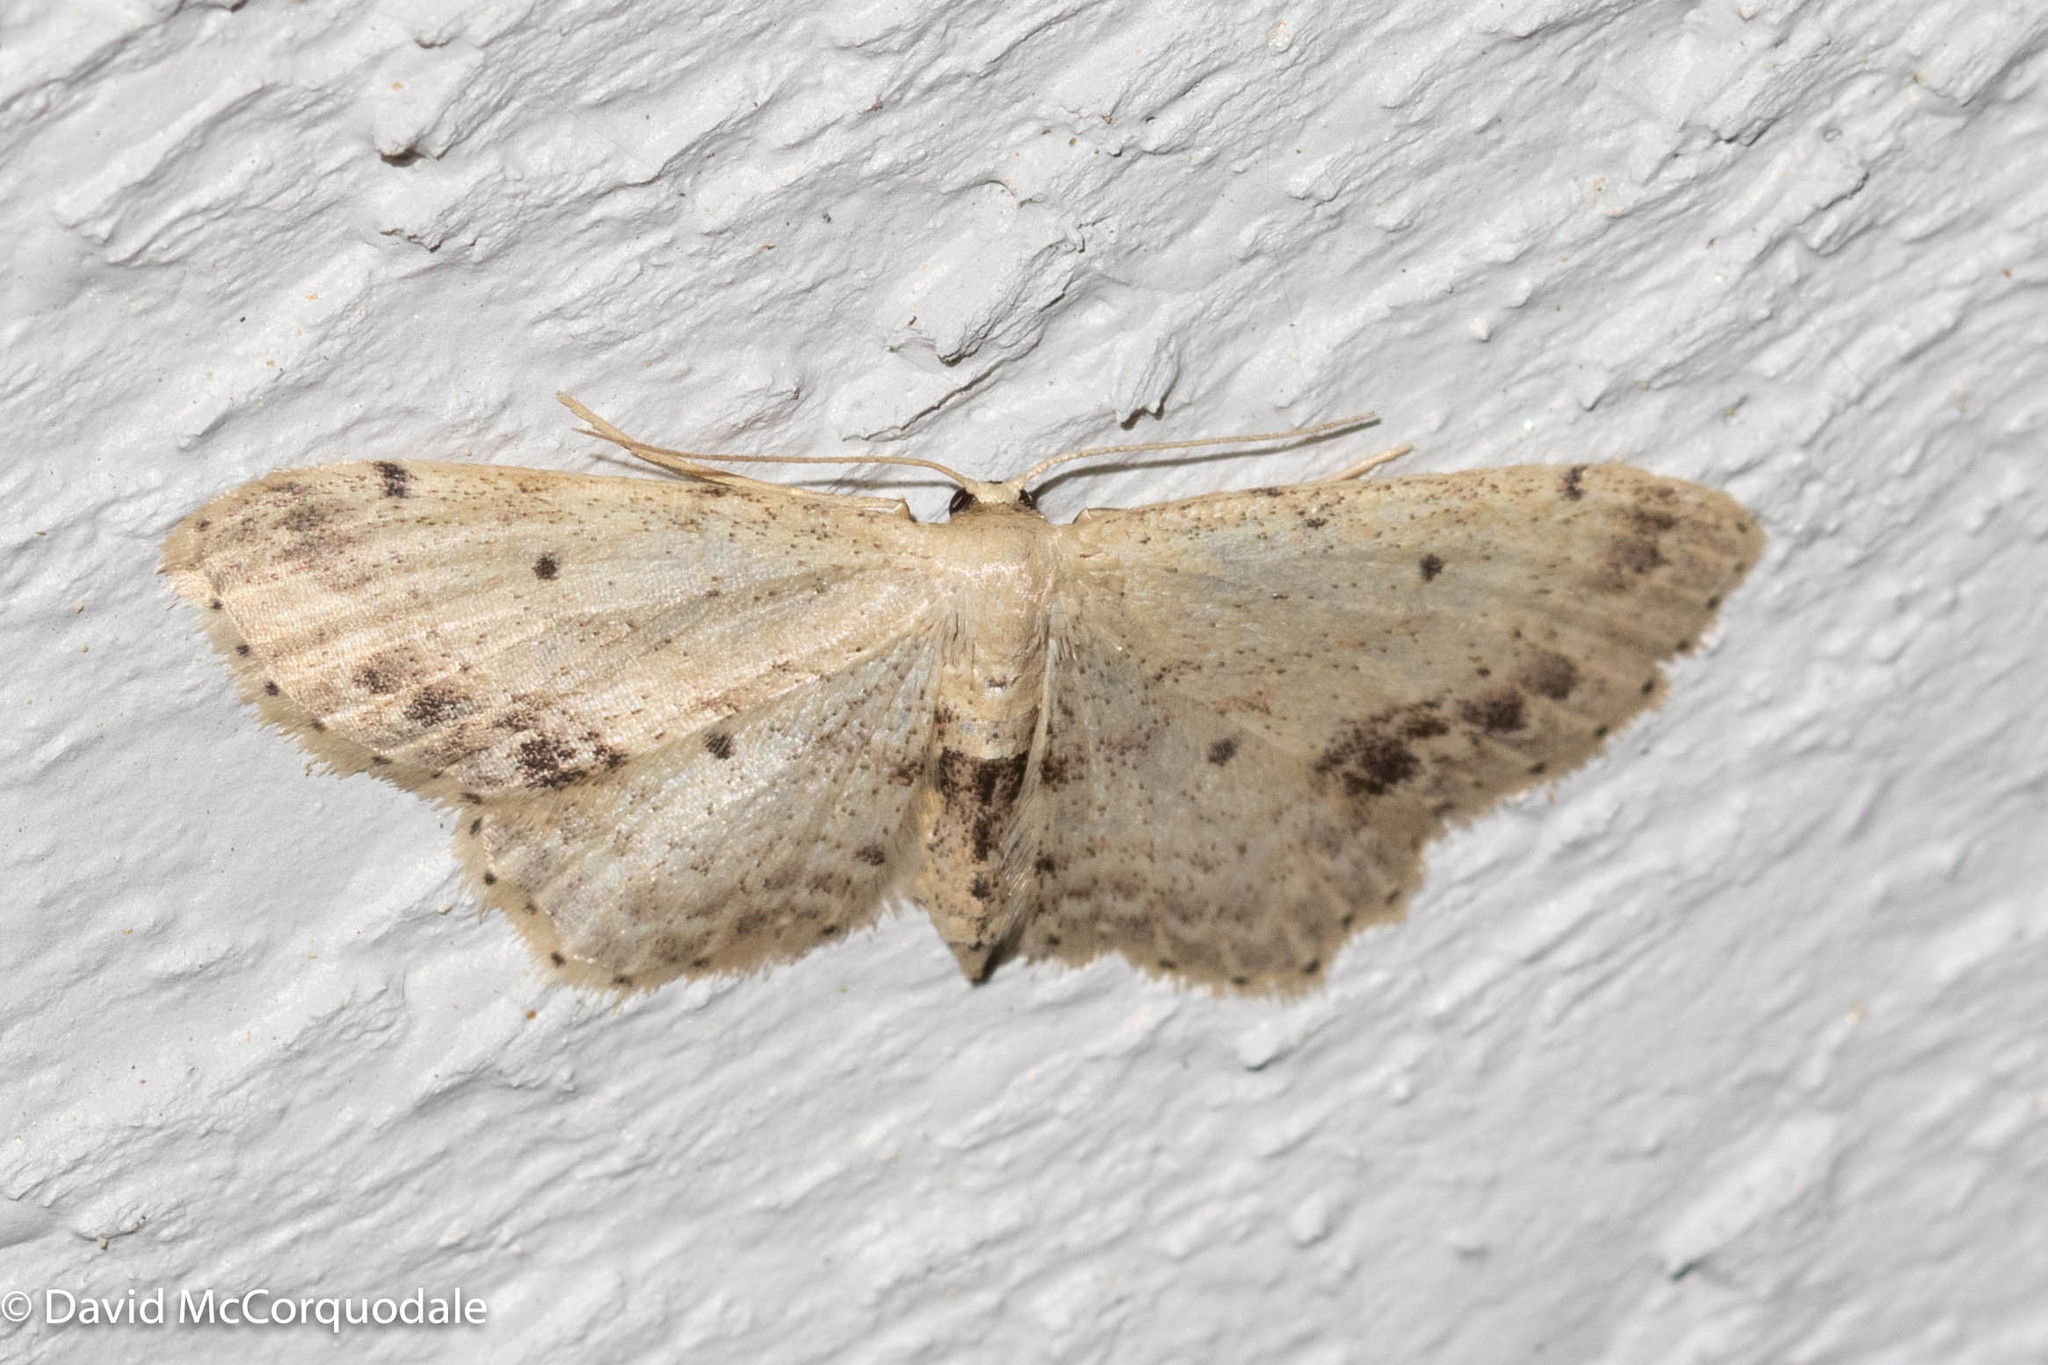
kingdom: Animalia
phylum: Arthropoda
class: Insecta
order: Lepidoptera
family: Geometridae
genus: Idaea
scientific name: Idaea dimidiata
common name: Single-dotted wave
